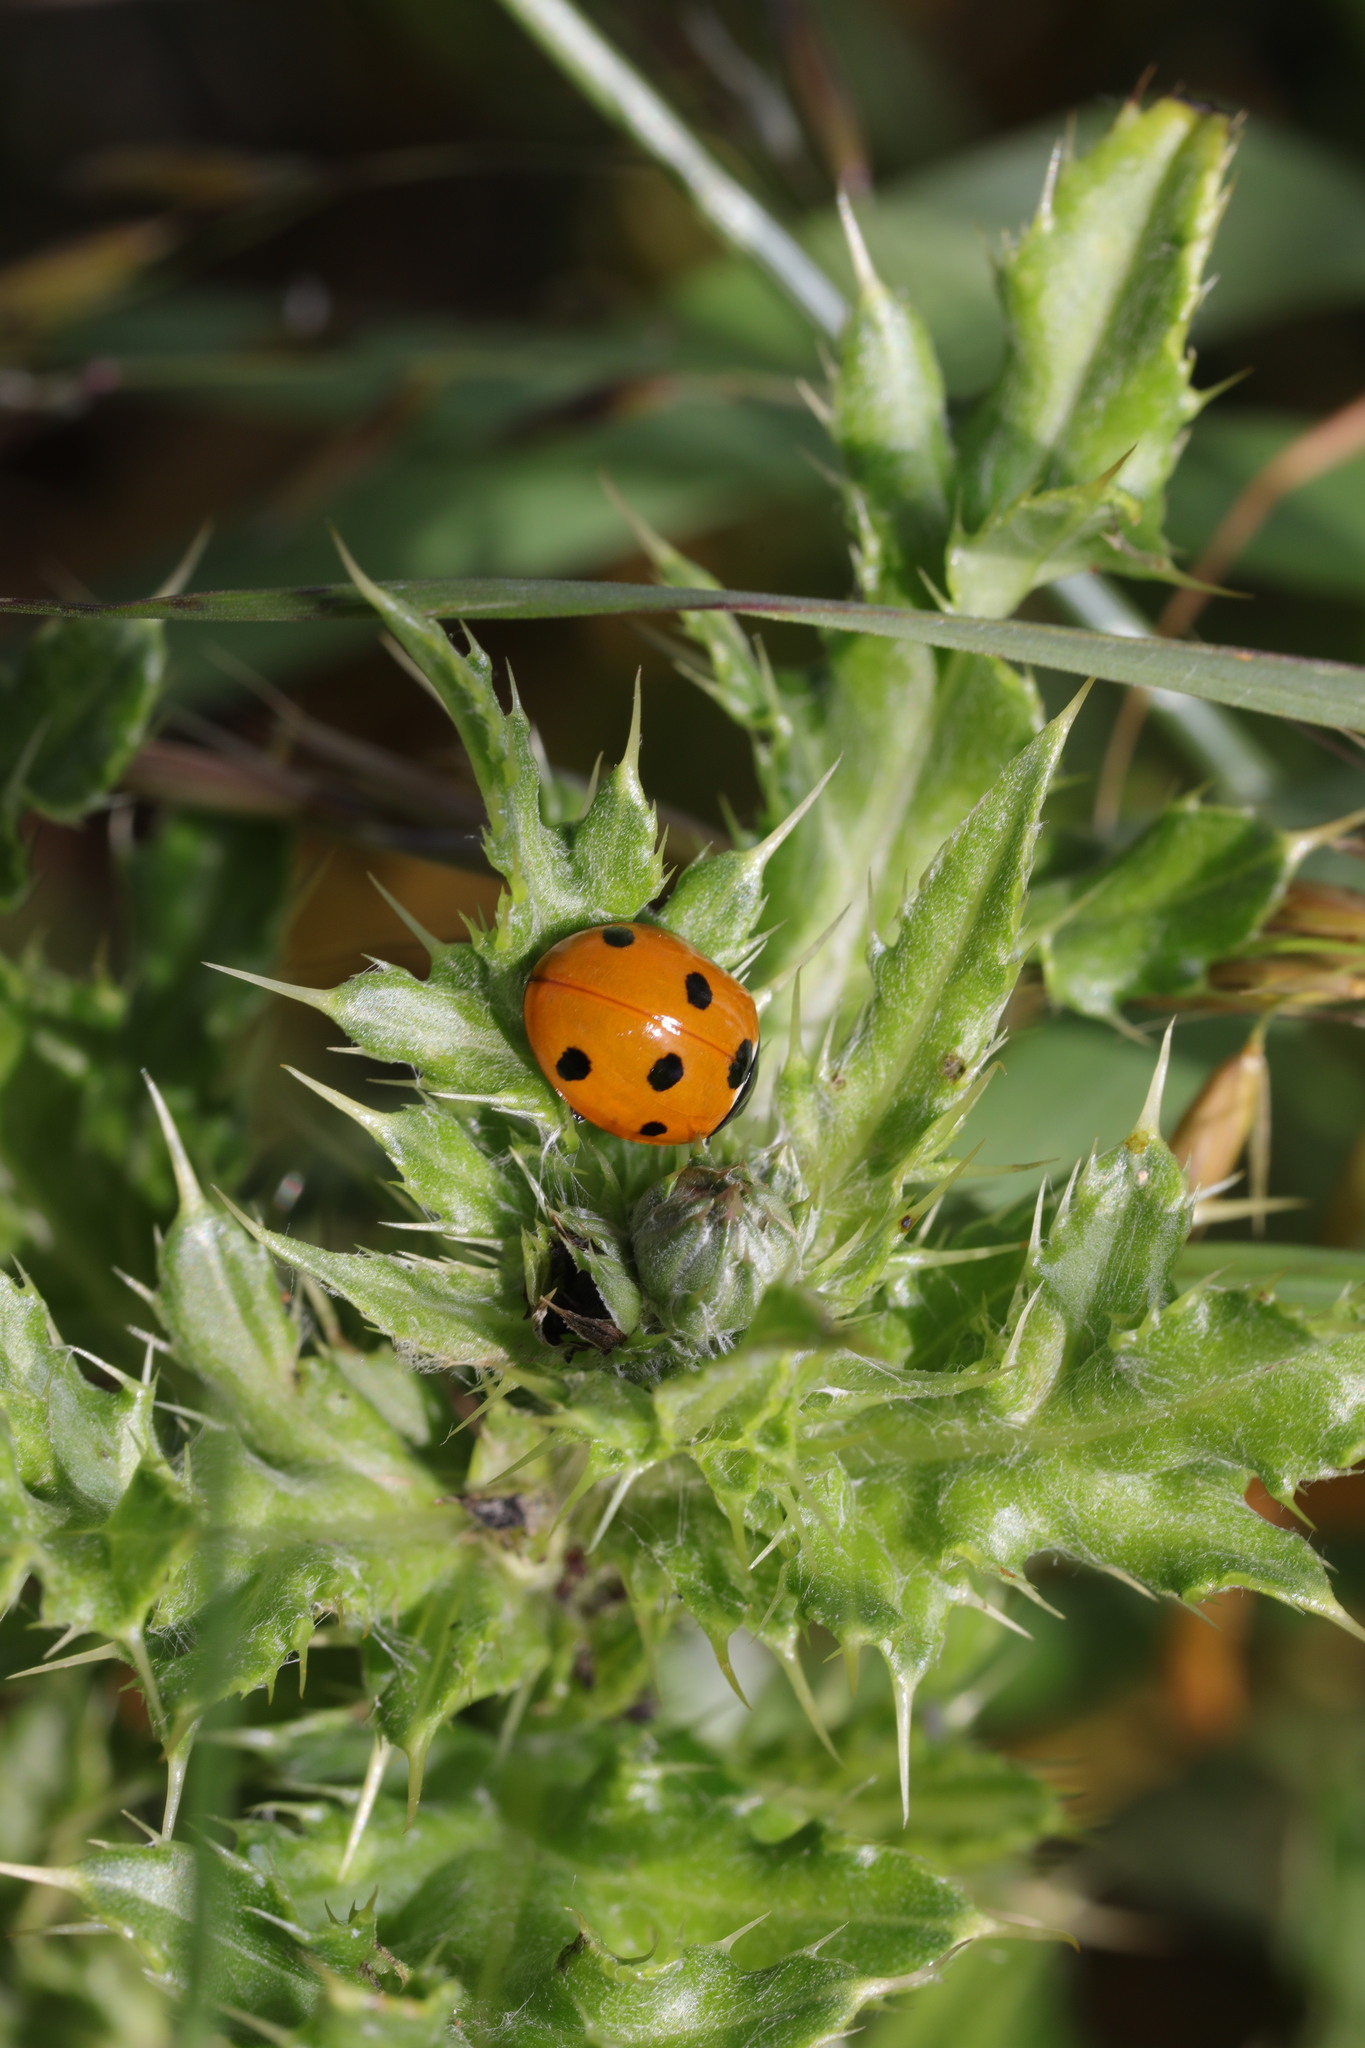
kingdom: Animalia
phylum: Arthropoda
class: Insecta
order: Coleoptera
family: Coccinellidae
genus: Coccinella
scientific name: Coccinella septempunctata
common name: Sevenspotted lady beetle
